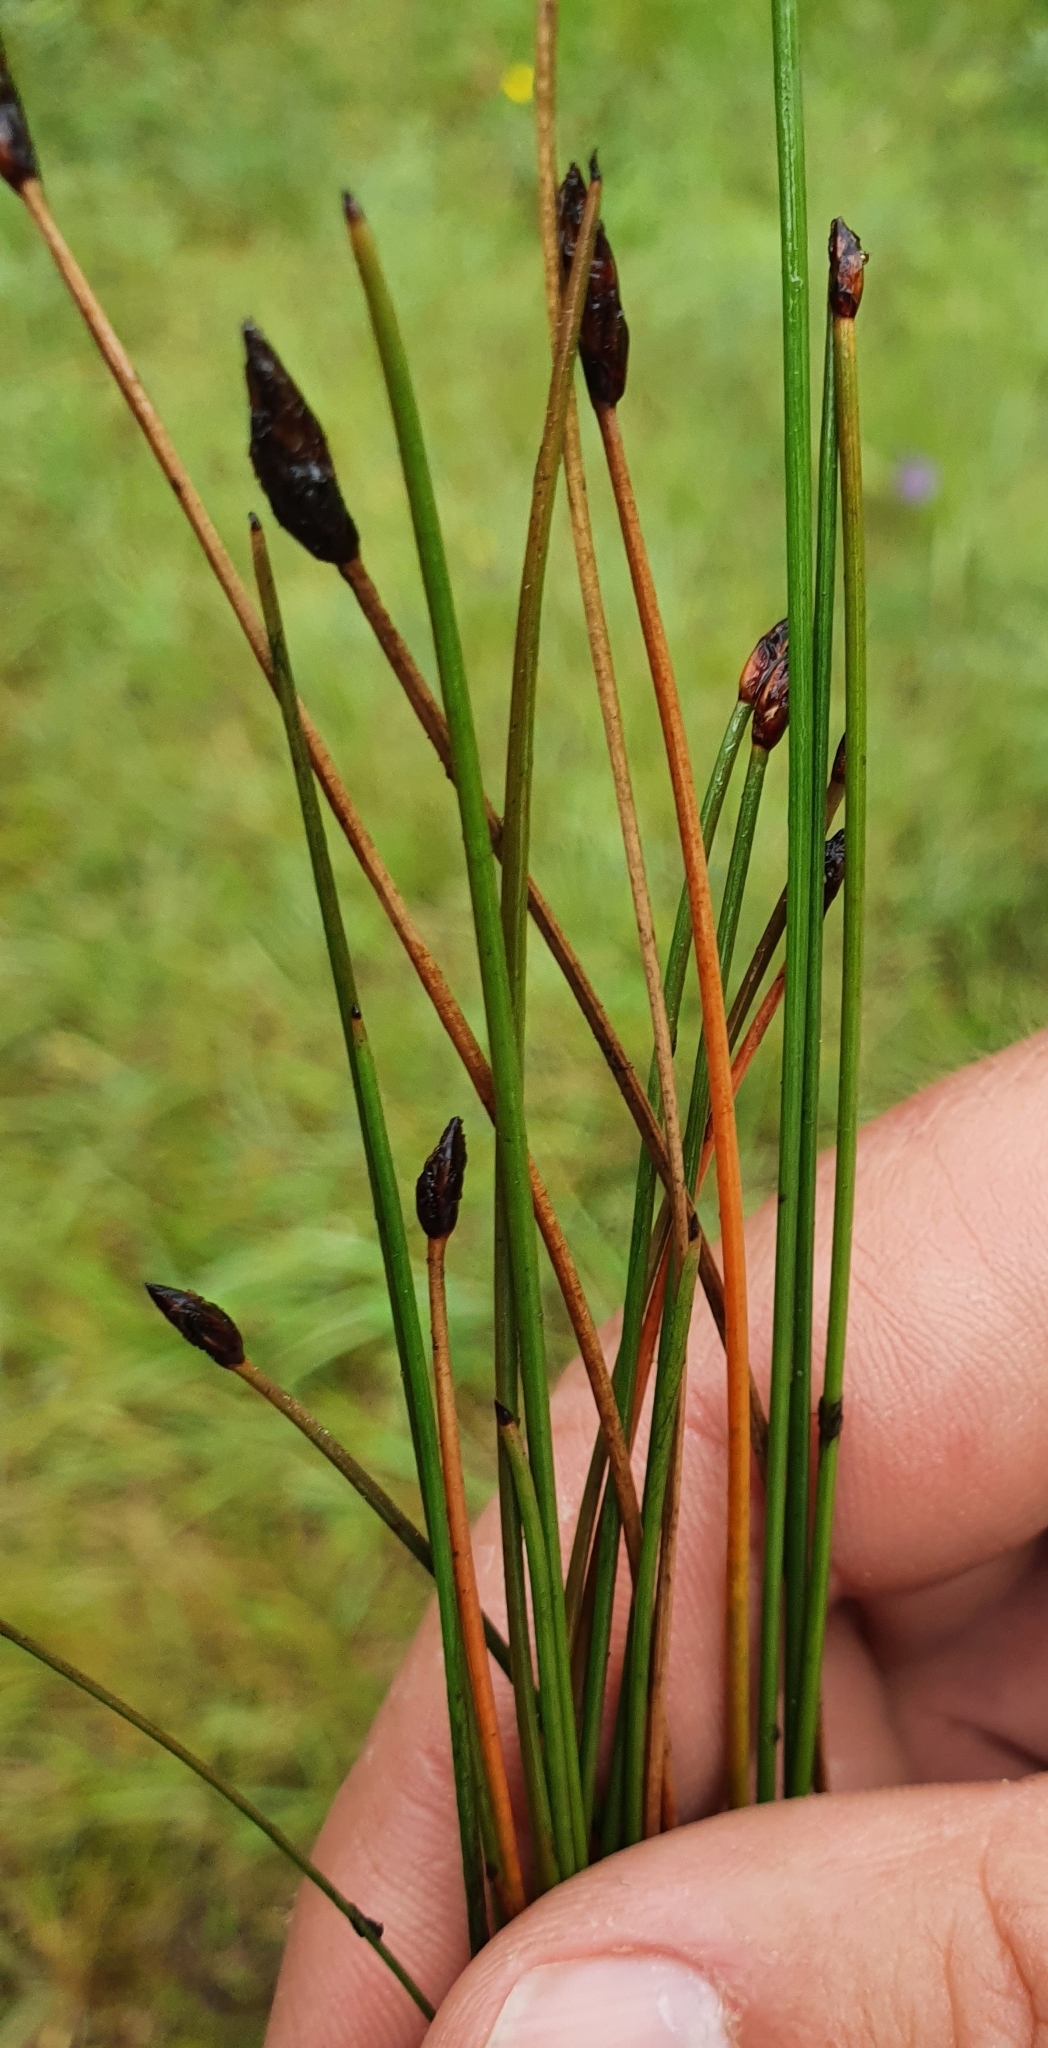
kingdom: Plantae
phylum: Tracheophyta
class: Liliopsida
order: Poales
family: Cyperaceae
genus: Eleocharis
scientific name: Eleocharis mamillata
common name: Northern spike-rush
